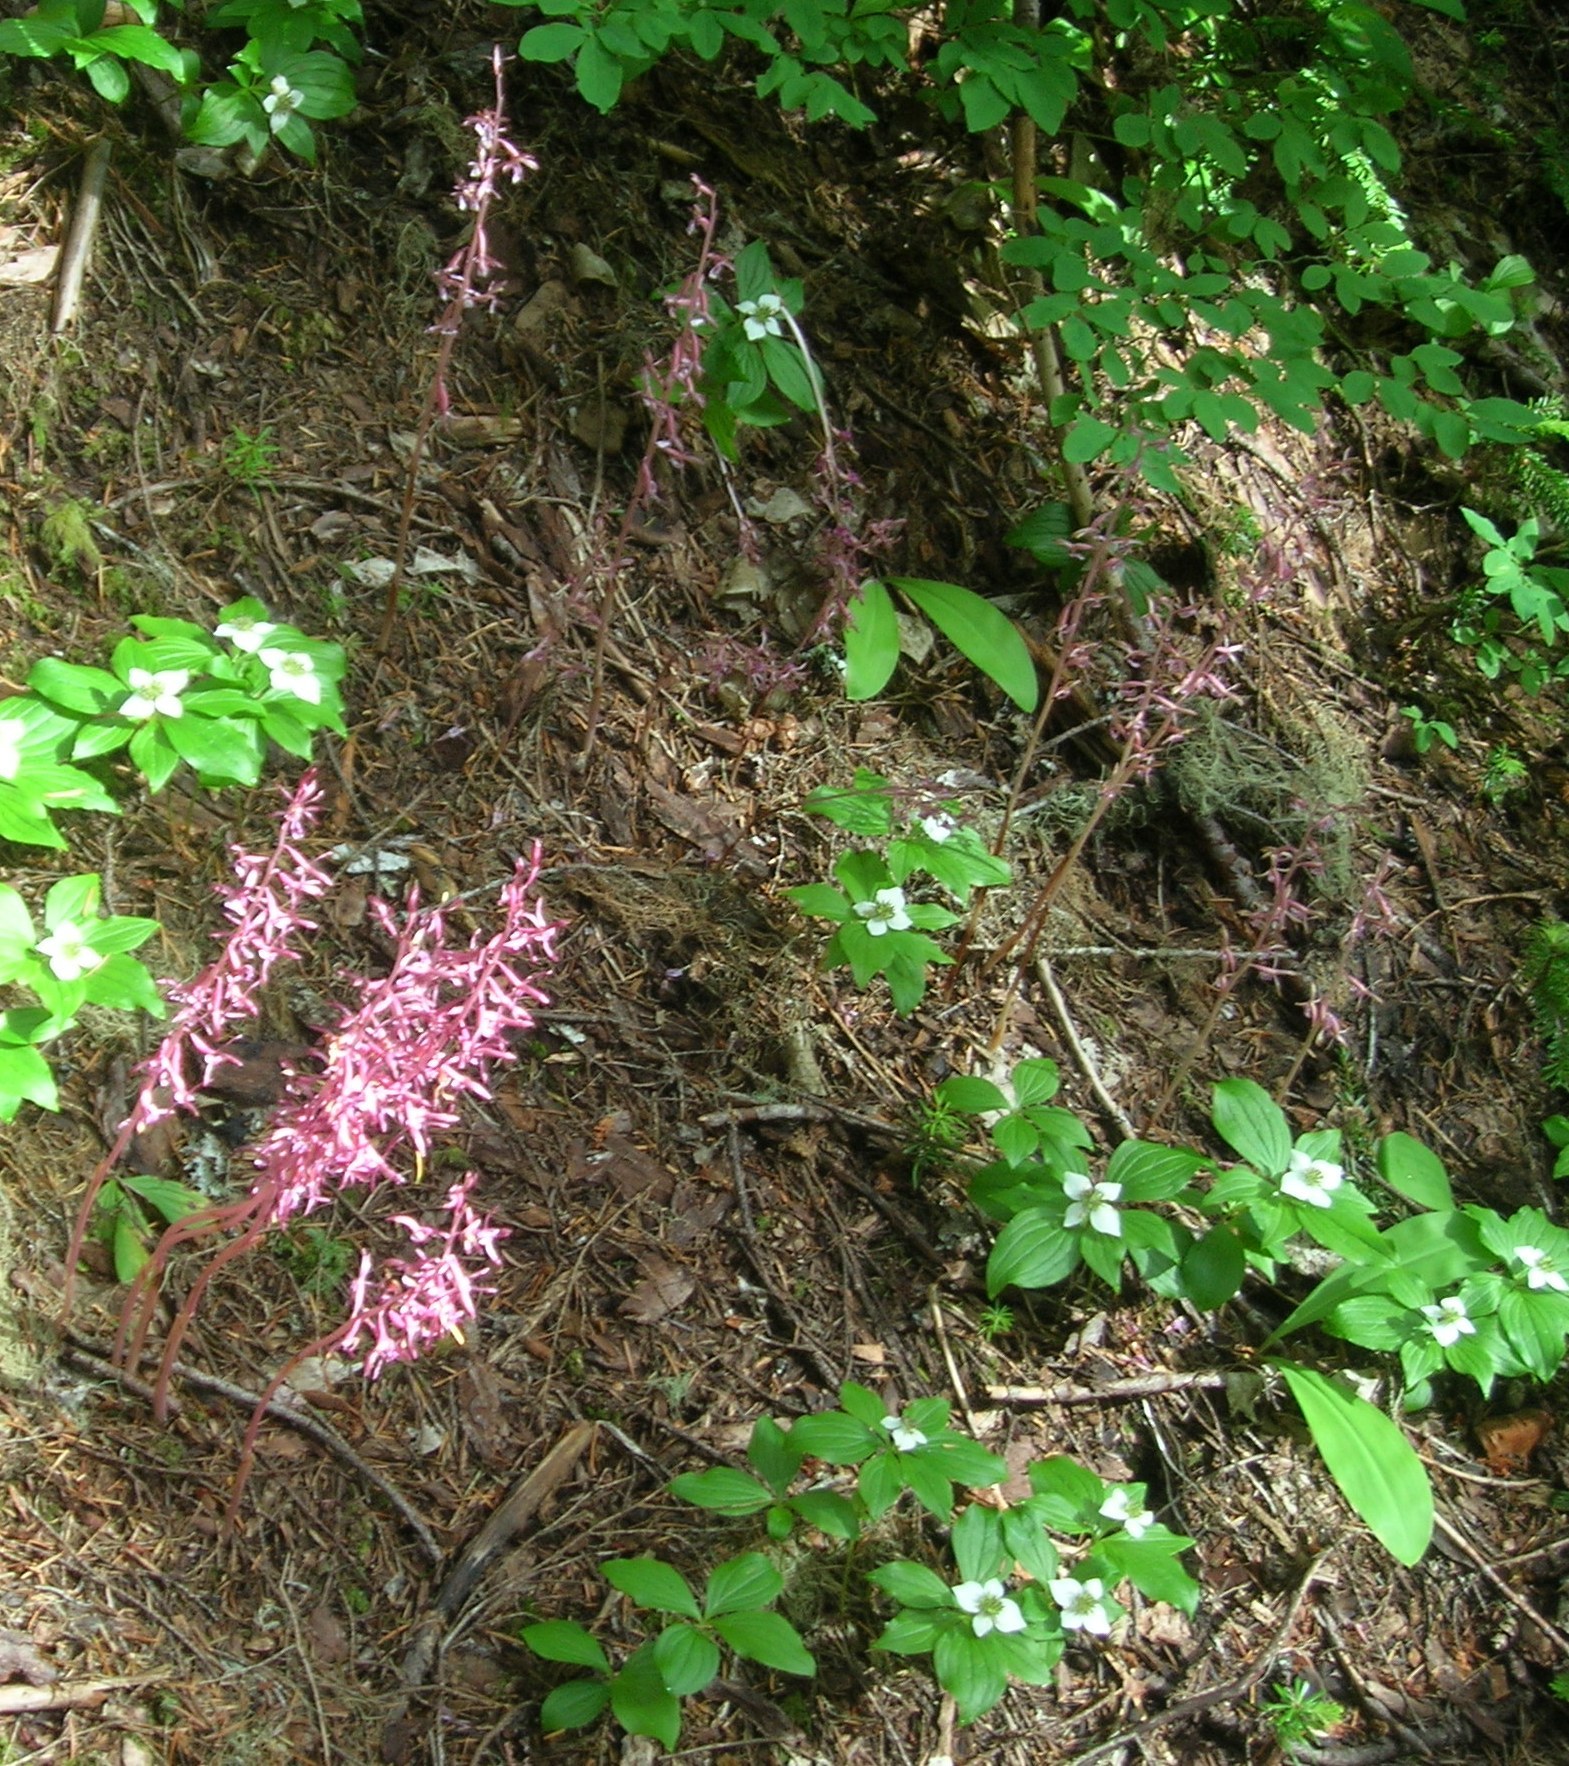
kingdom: Plantae
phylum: Tracheophyta
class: Liliopsida
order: Asparagales
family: Orchidaceae
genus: Corallorhiza
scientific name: Corallorhiza mertensiana
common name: Pacific coralroot
